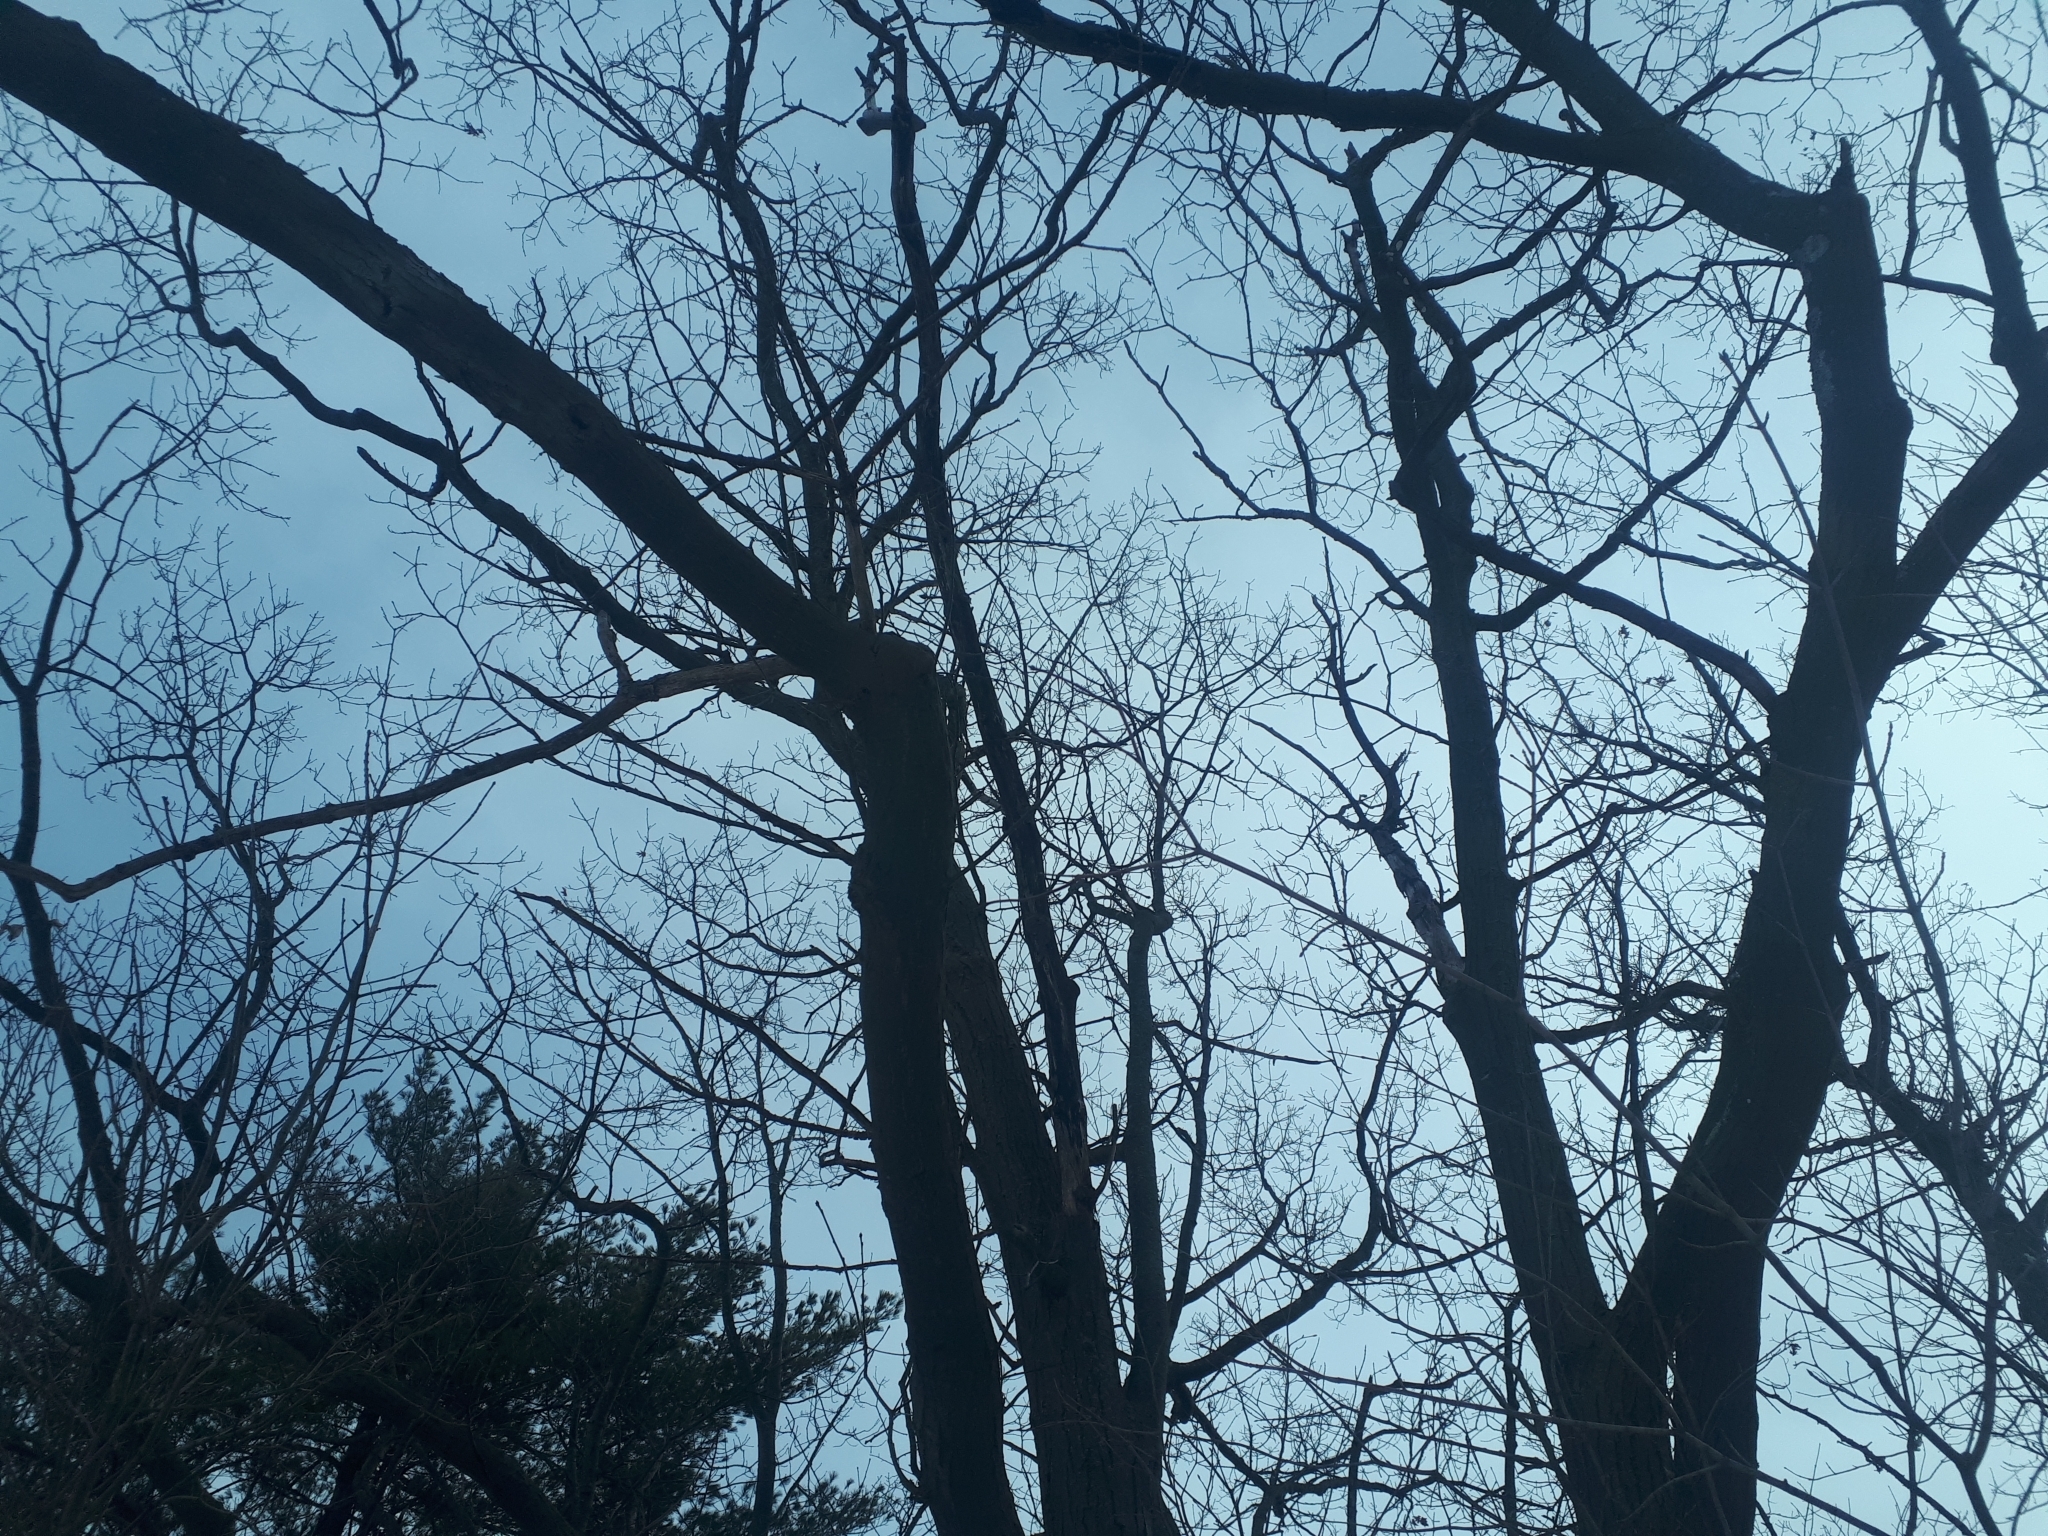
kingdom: Plantae
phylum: Tracheophyta
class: Magnoliopsida
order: Fagales
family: Fagaceae
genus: Quercus
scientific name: Quercus rubra
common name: Red oak
